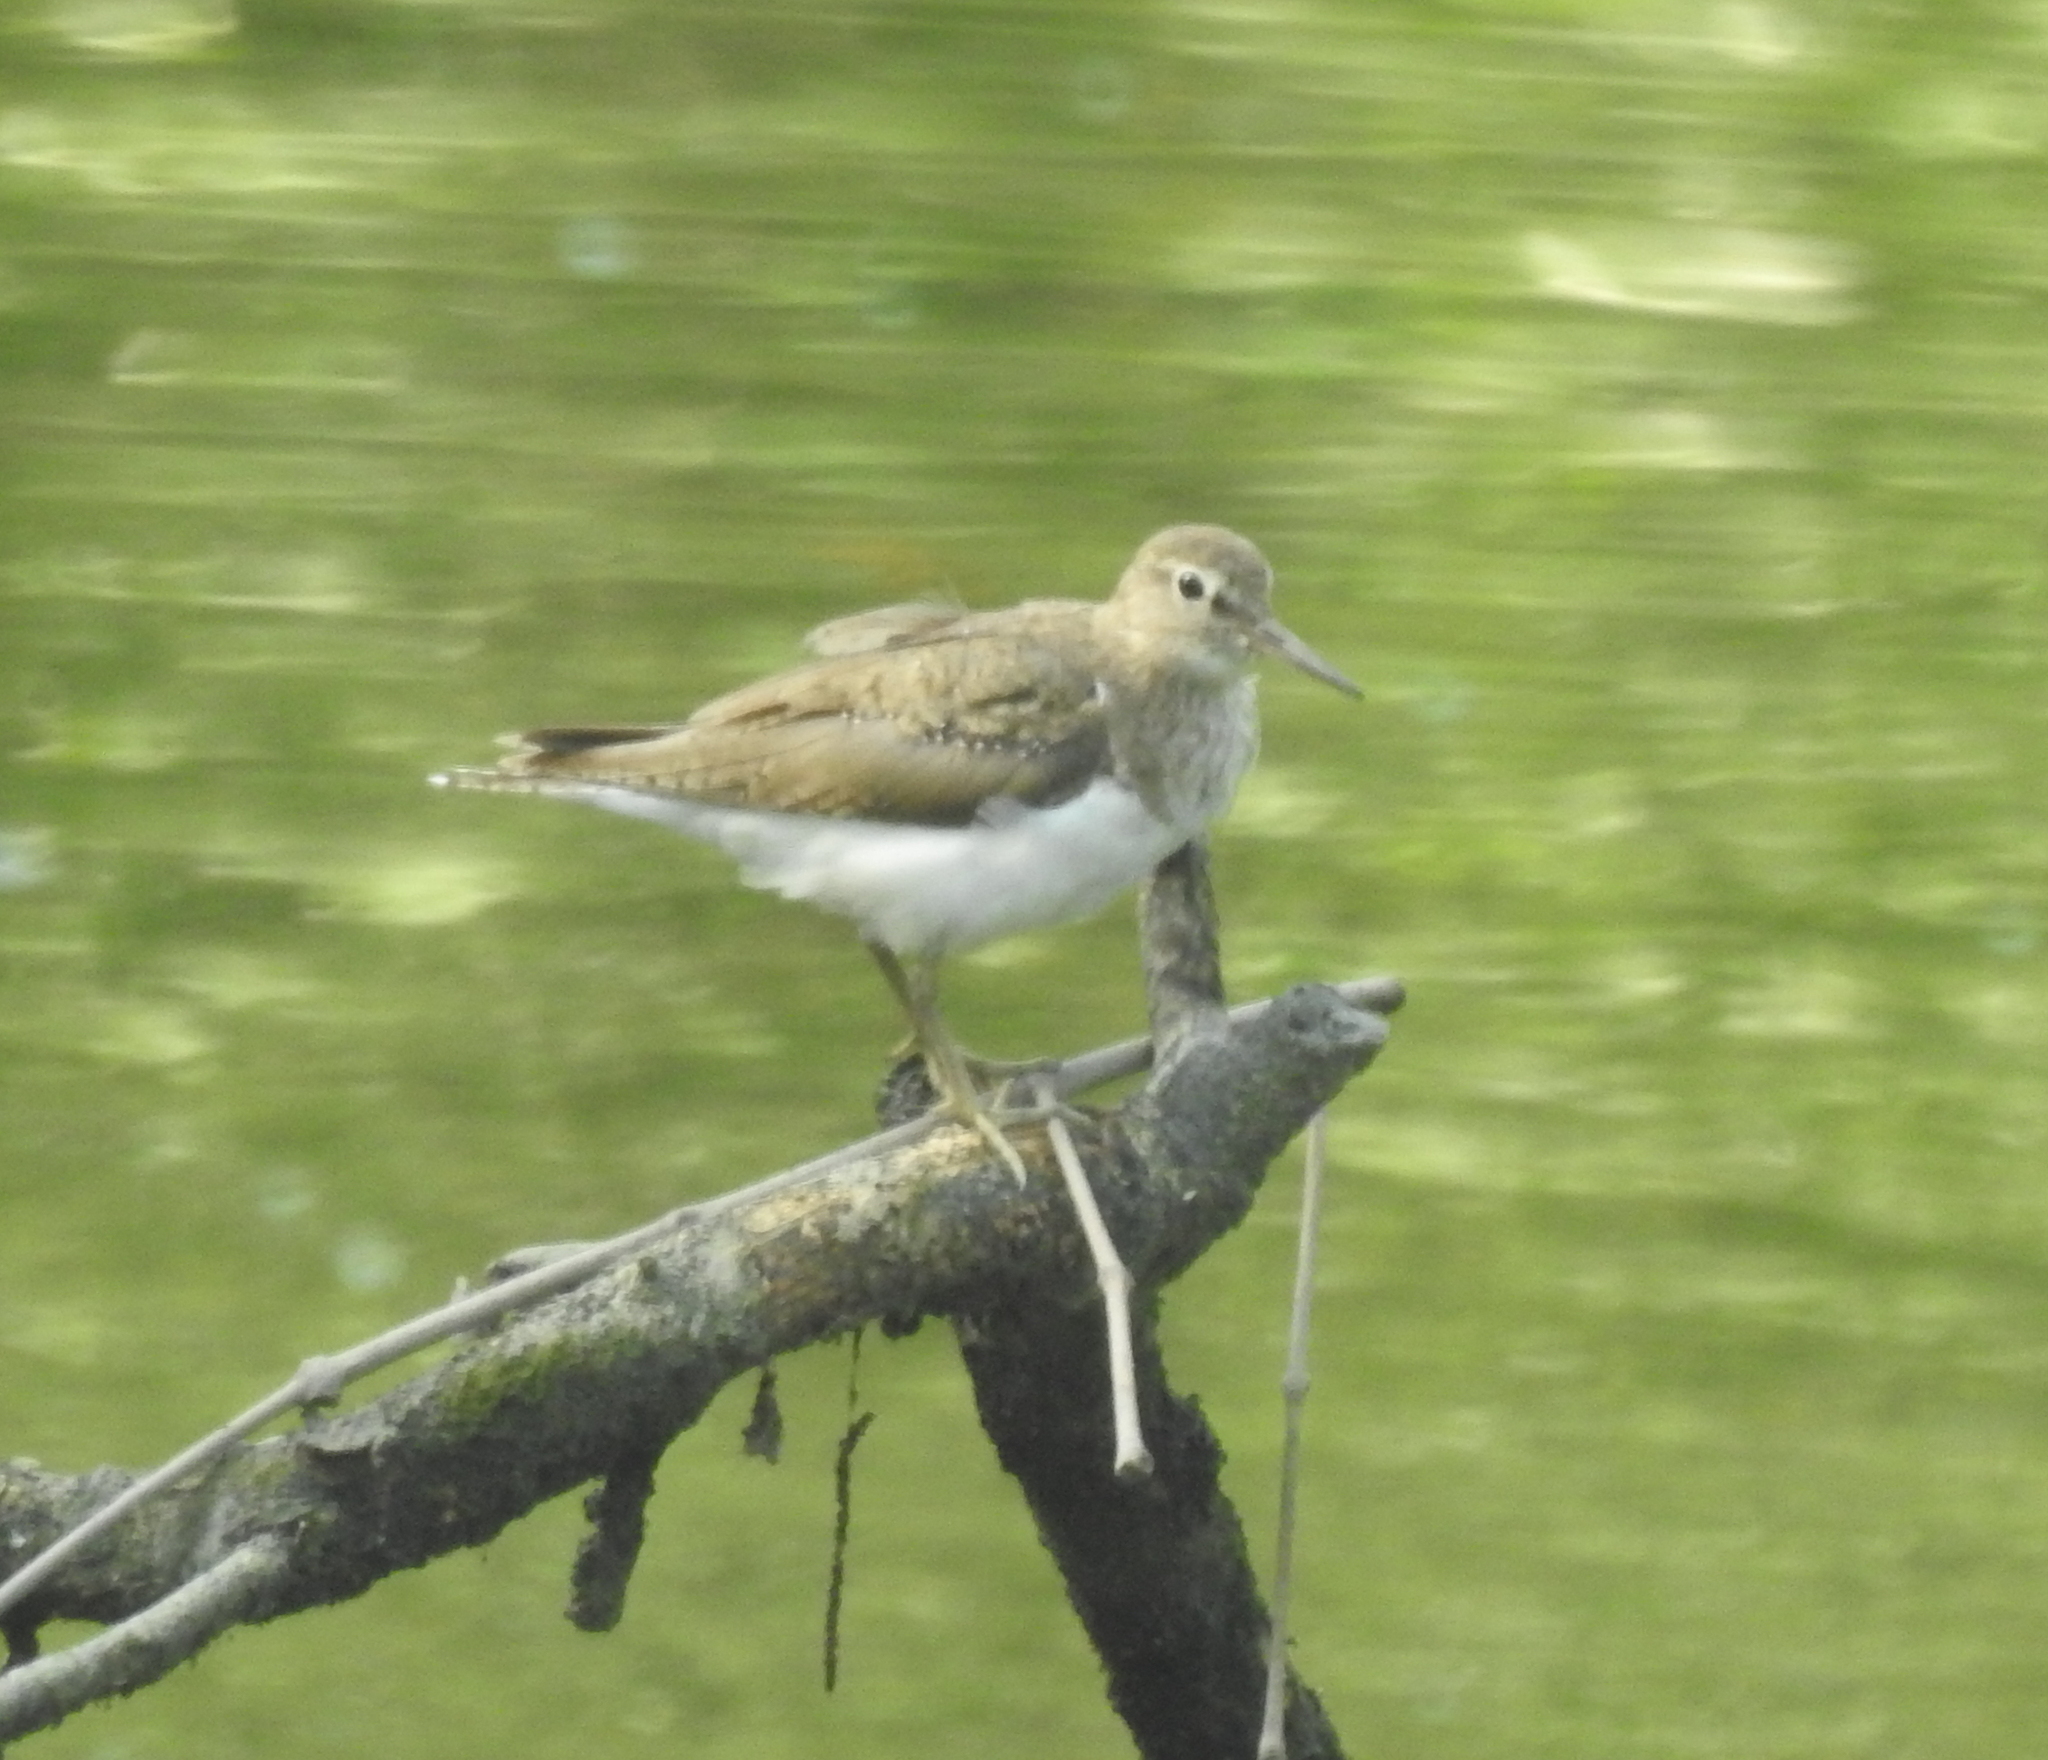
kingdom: Animalia
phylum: Chordata
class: Aves
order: Charadriiformes
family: Scolopacidae
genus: Actitis
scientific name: Actitis hypoleucos
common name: Common sandpiper
